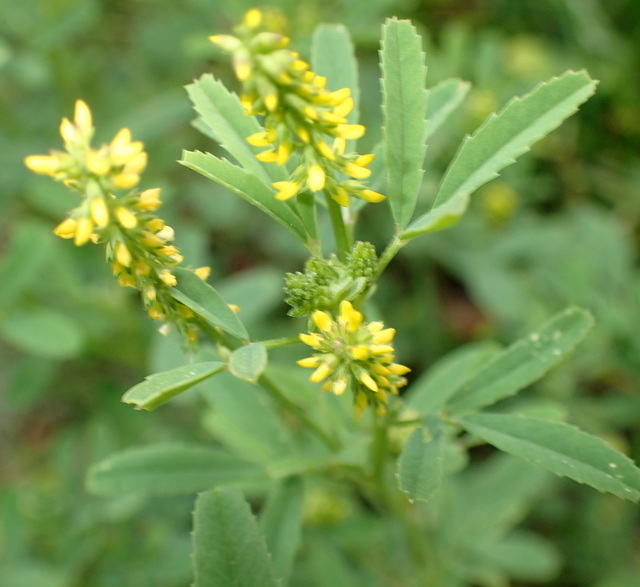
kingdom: Plantae
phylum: Tracheophyta
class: Magnoliopsida
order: Fabales
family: Fabaceae
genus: Melilotus
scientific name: Melilotus indicus
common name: Small melilot
